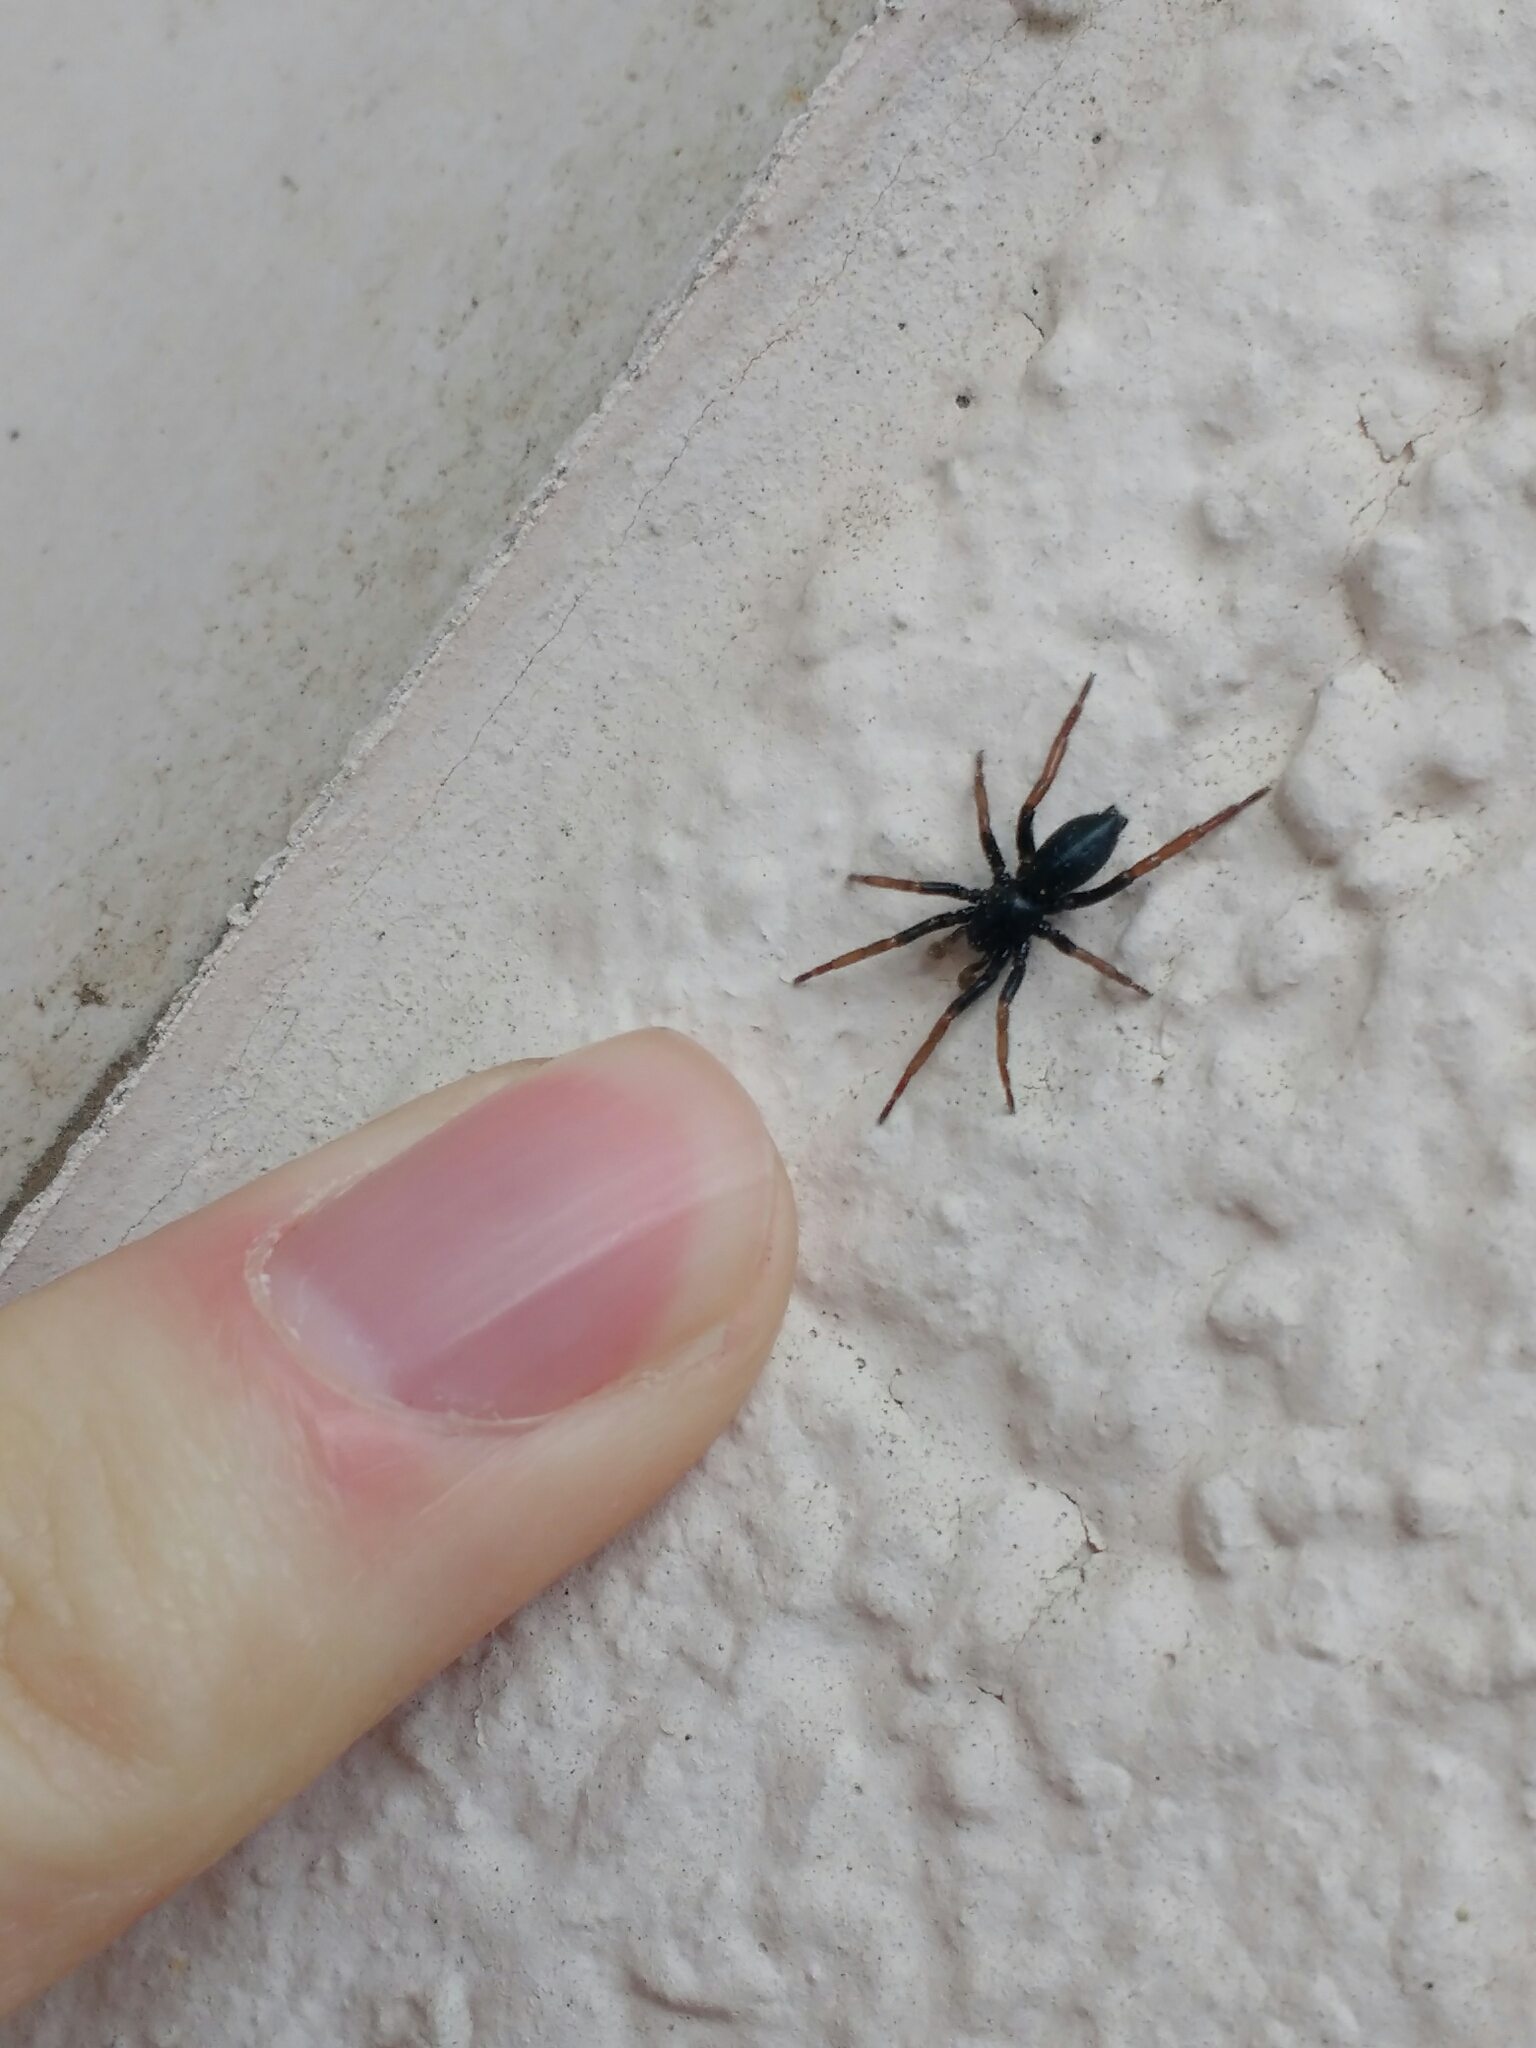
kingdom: Animalia
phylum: Arthropoda
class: Arachnida
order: Araneae
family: Gnaphosidae
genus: Trachyzelotes
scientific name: Trachyzelotes pedestris
